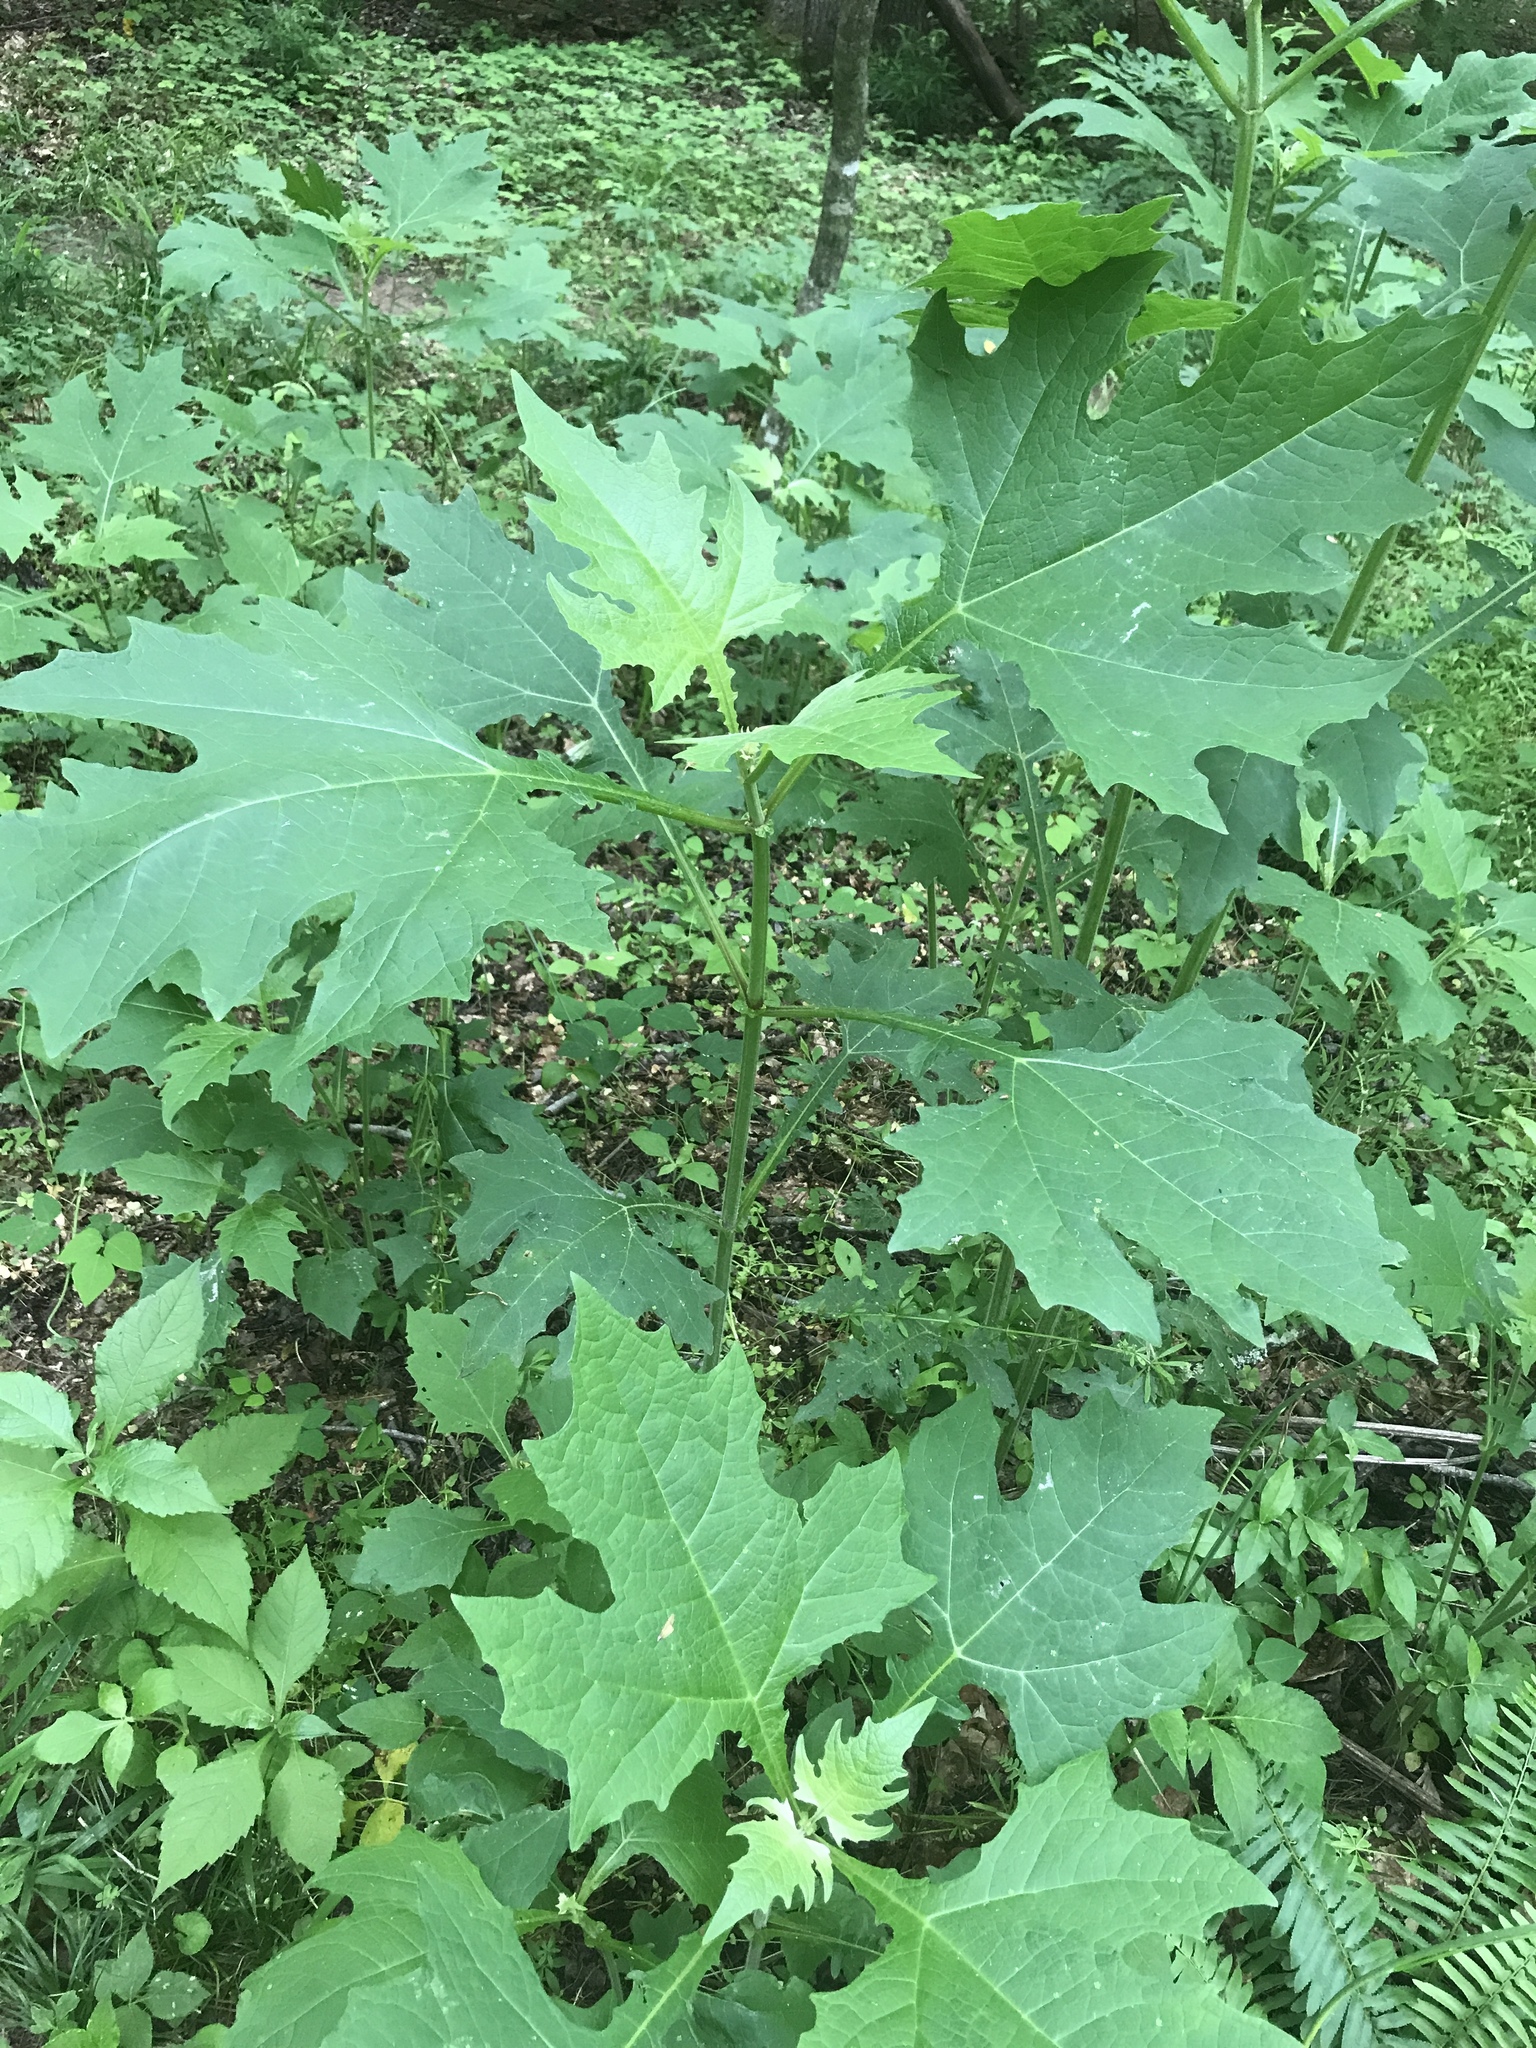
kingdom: Plantae
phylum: Tracheophyta
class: Magnoliopsida
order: Asterales
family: Asteraceae
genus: Smallanthus
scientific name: Smallanthus uvedalia
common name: Bear's-foot
